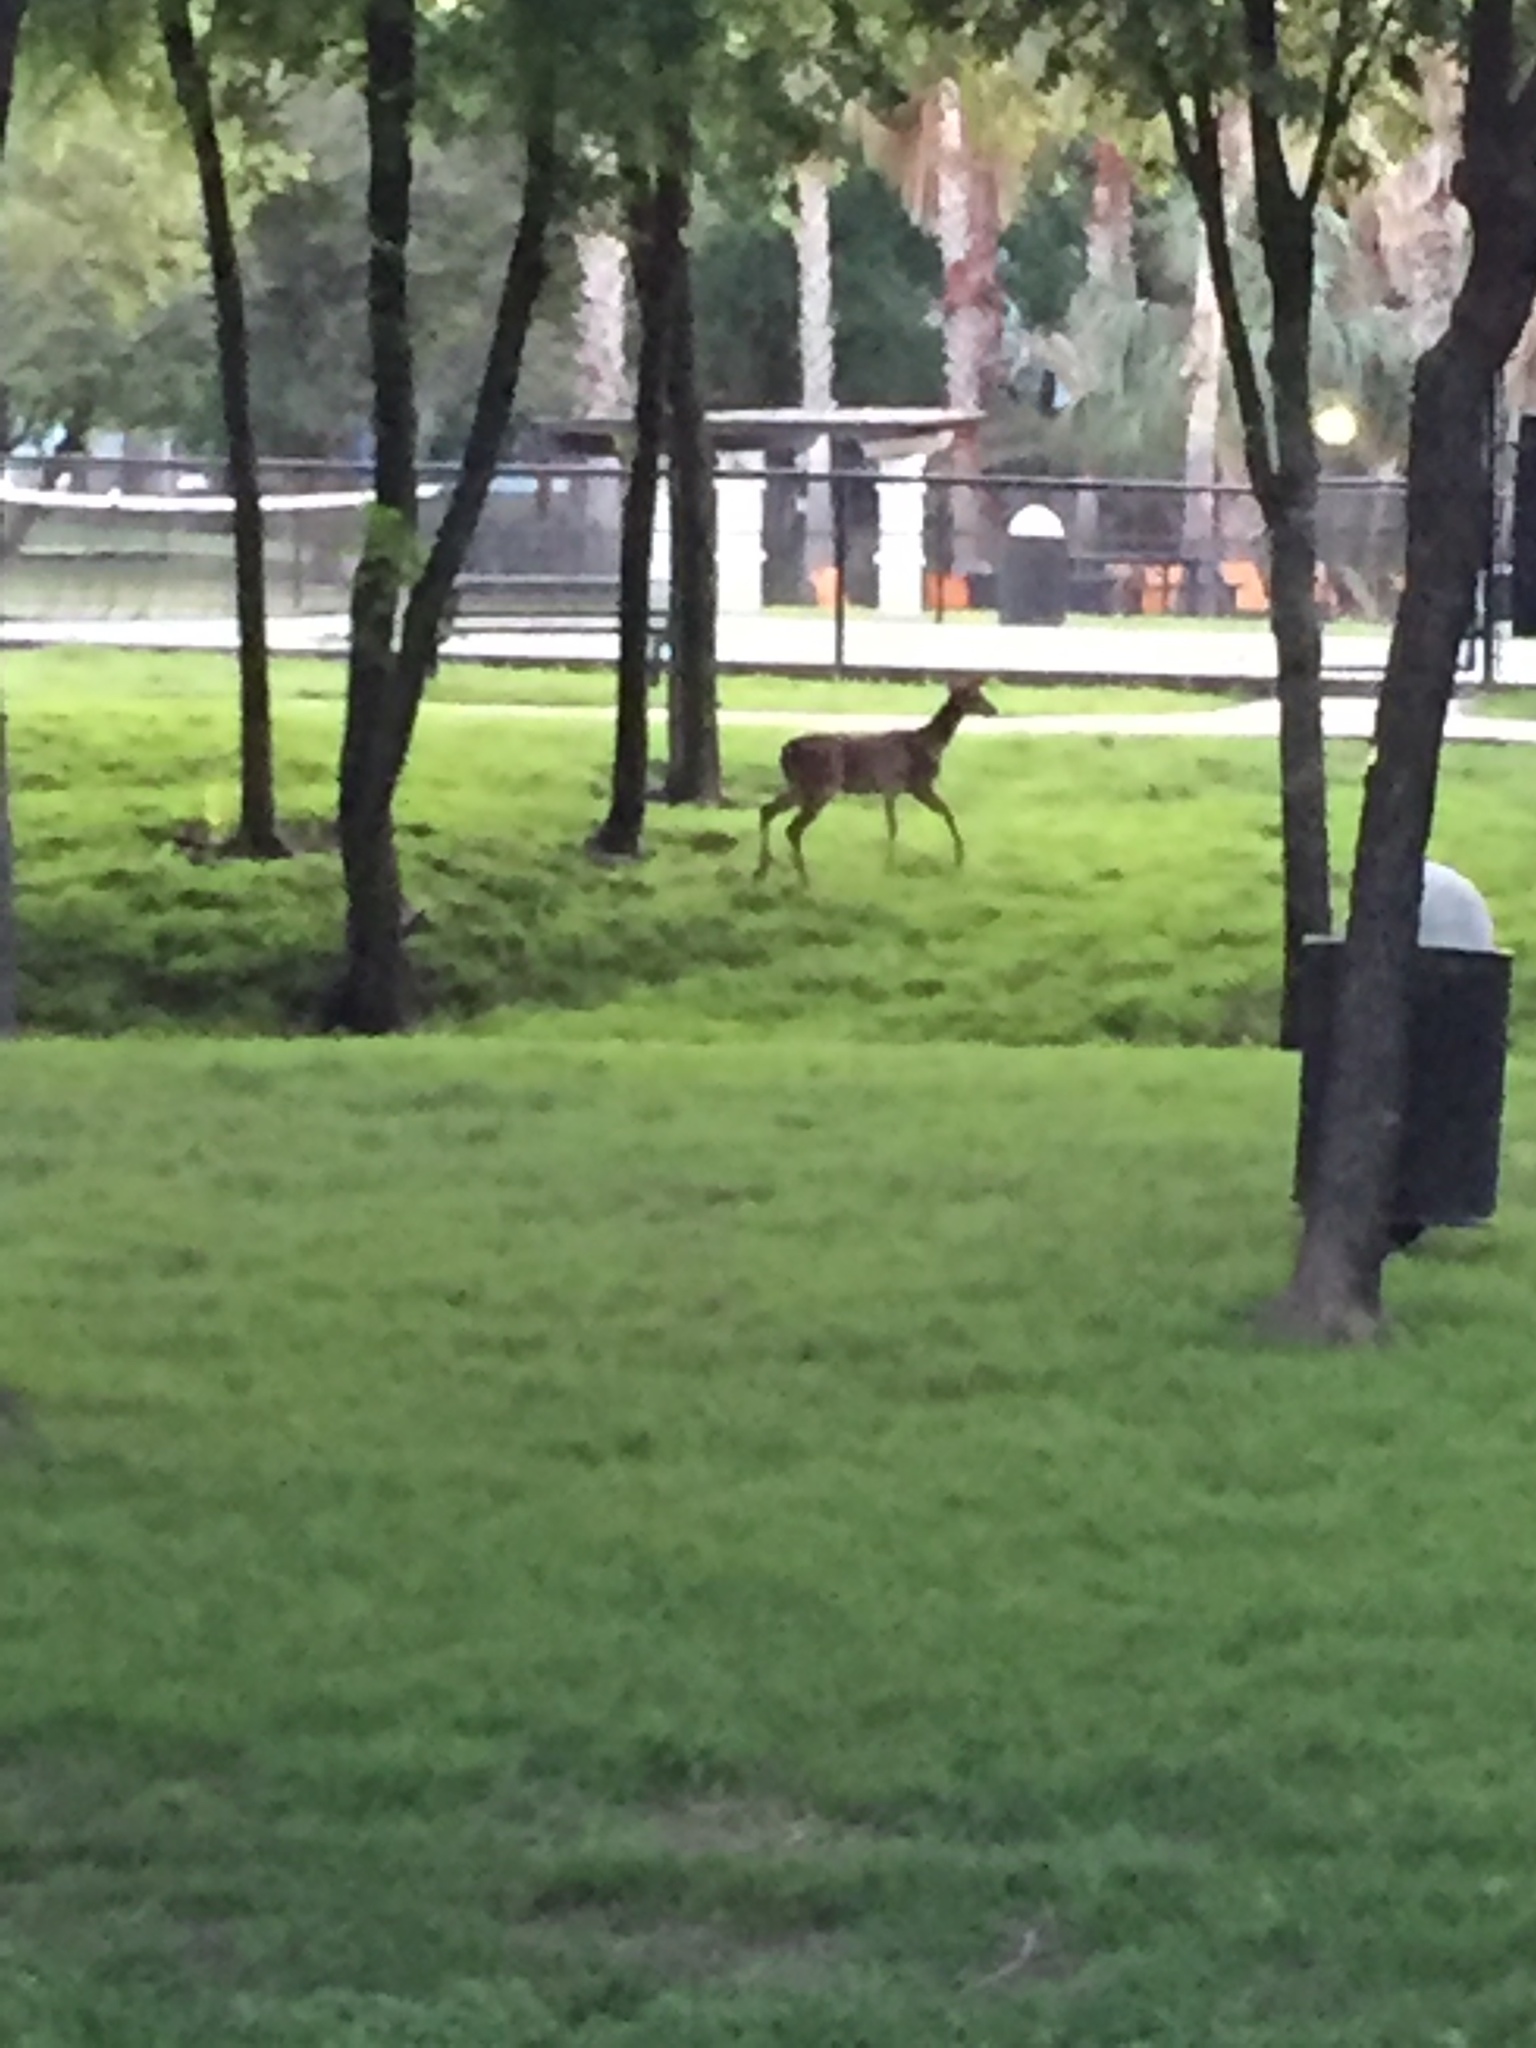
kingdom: Animalia
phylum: Chordata
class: Mammalia
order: Artiodactyla
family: Cervidae
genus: Odocoileus
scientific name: Odocoileus virginianus
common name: White-tailed deer
